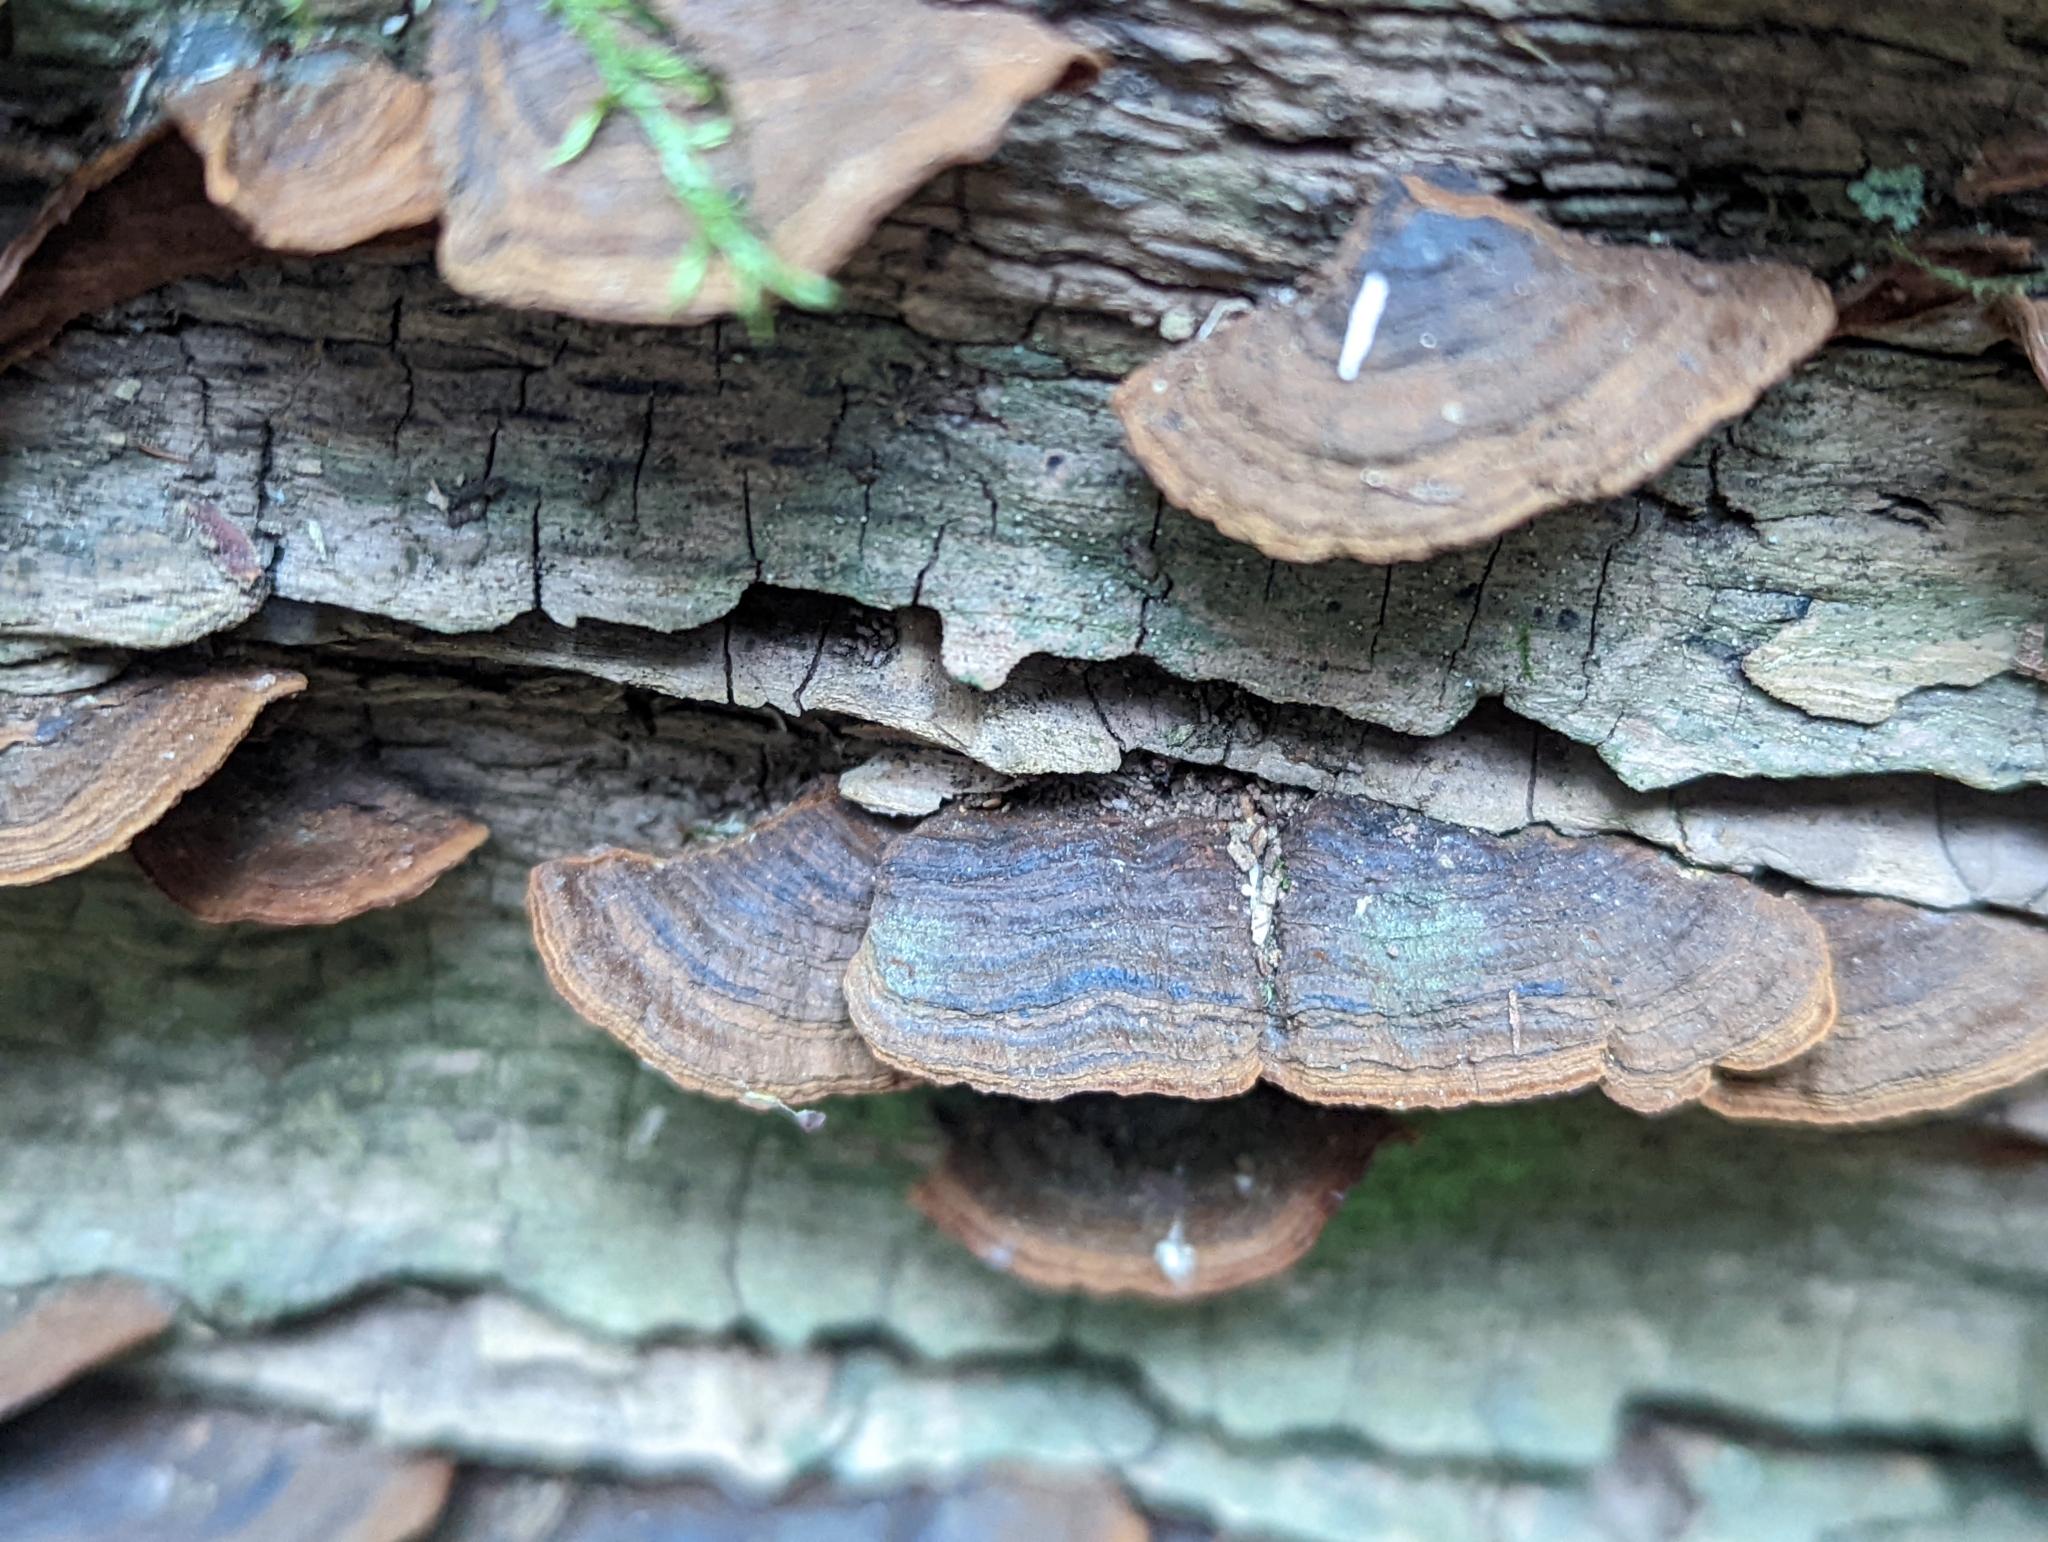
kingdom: Fungi
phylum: Basidiomycota
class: Agaricomycetes
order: Hymenochaetales
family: Hymenochaetaceae
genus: Hymenochaete
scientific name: Hymenochaete rubiginosa
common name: Oak curtain crust
